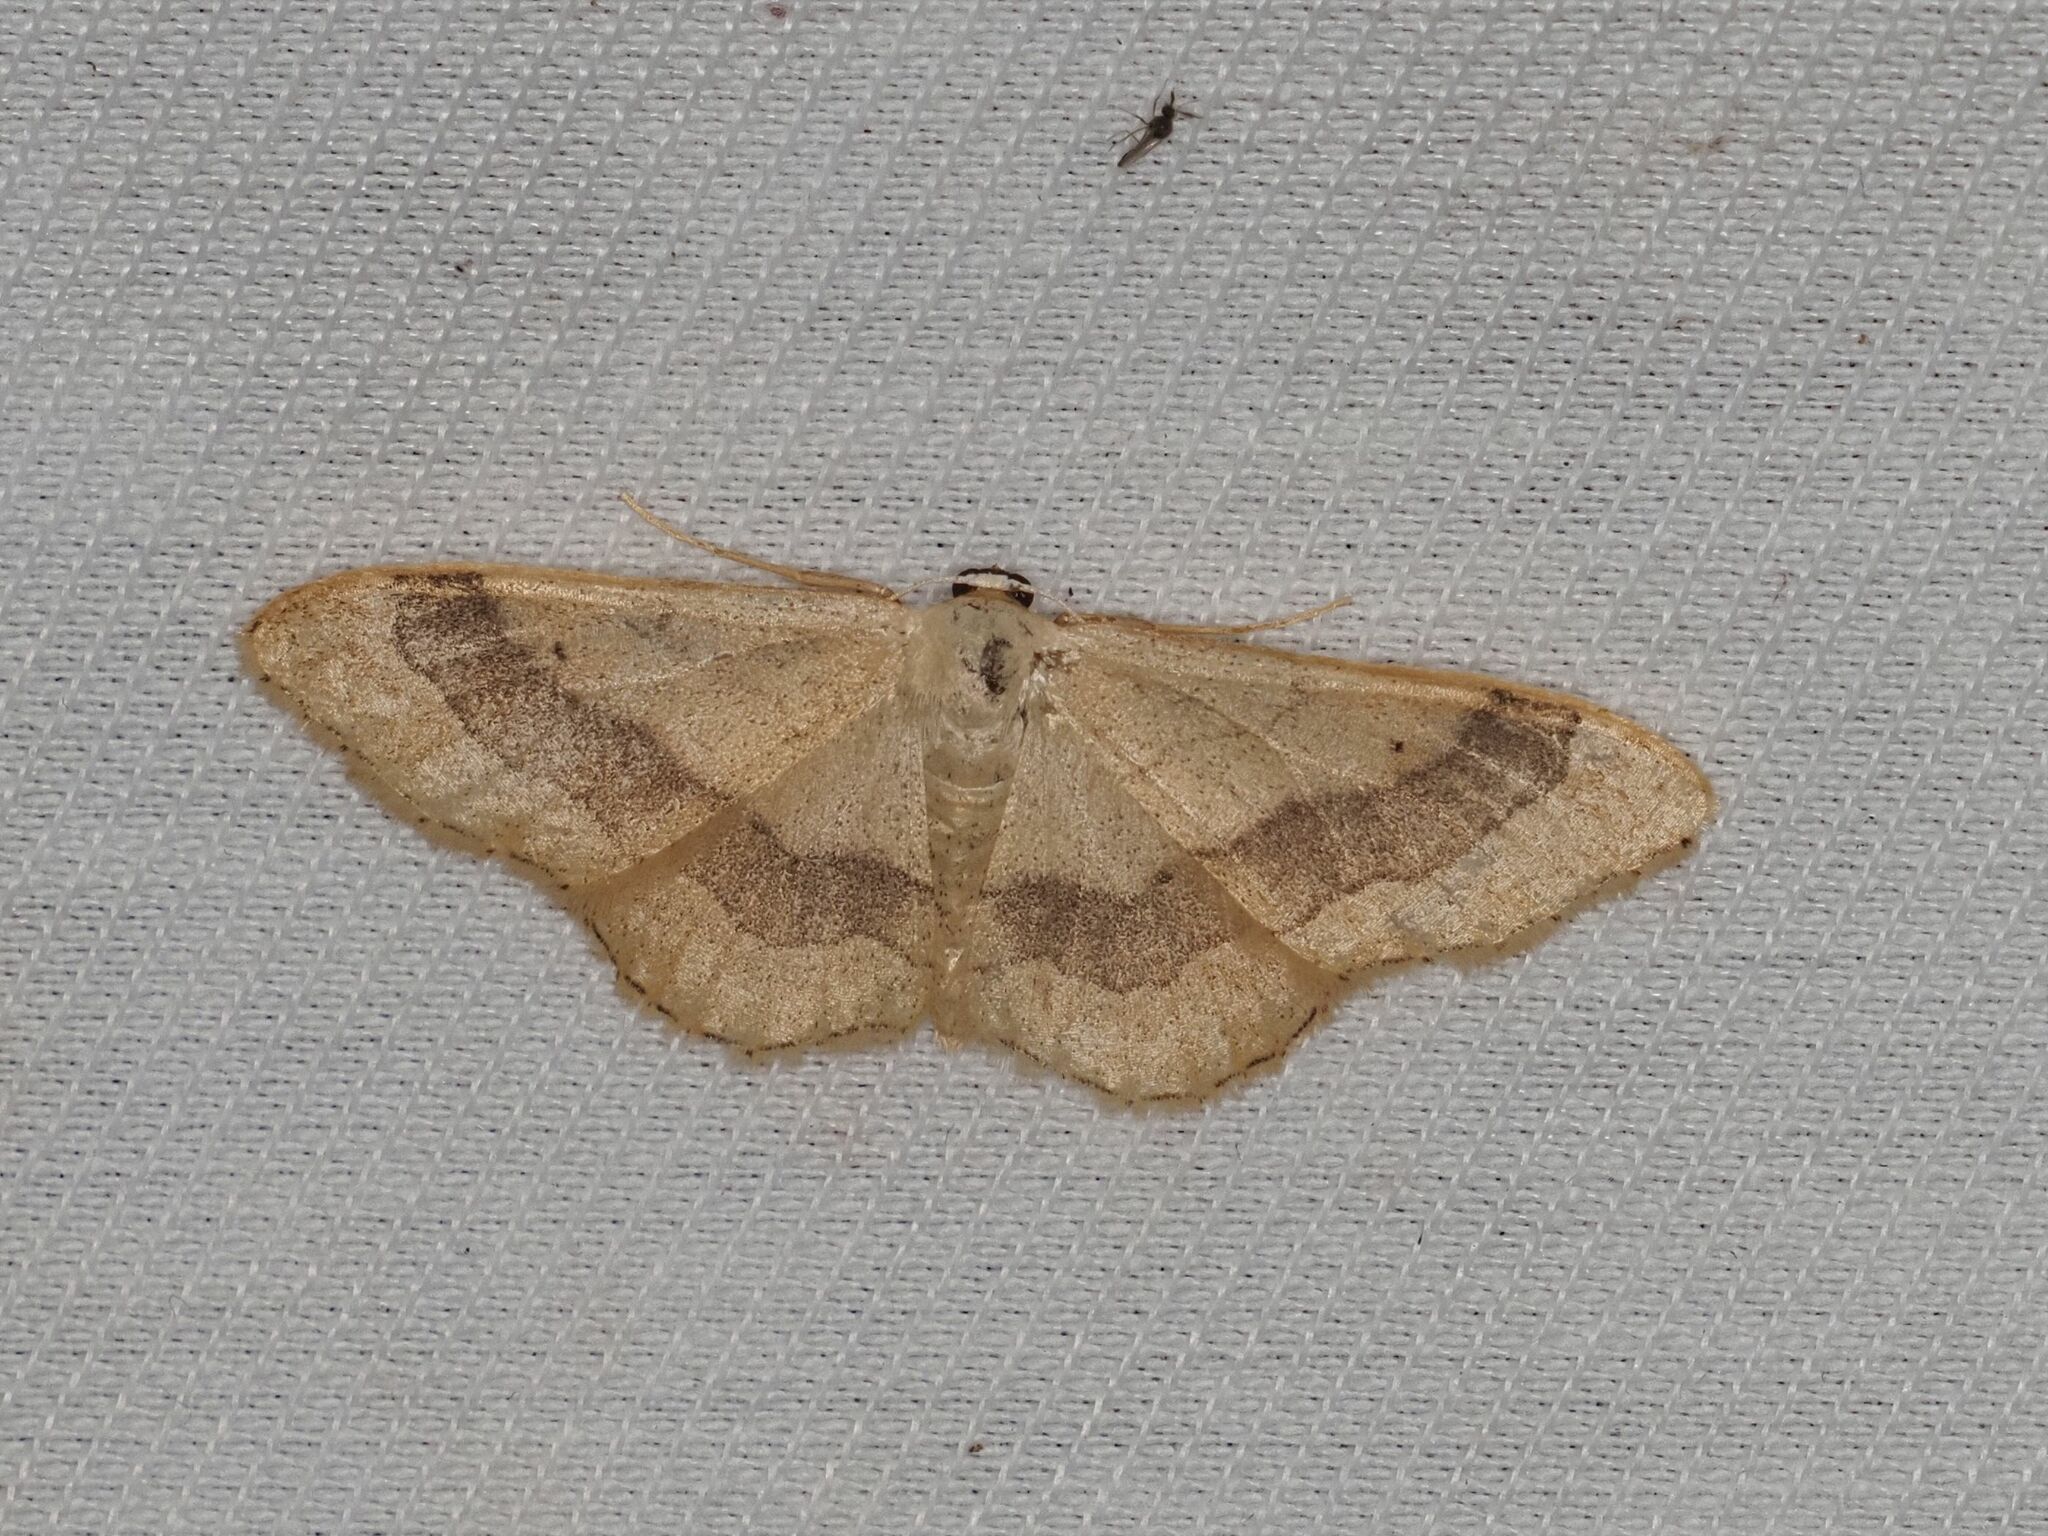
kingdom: Animalia
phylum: Arthropoda
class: Insecta
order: Lepidoptera
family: Geometridae
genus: Idaea
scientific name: Idaea aversata
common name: Riband wave
